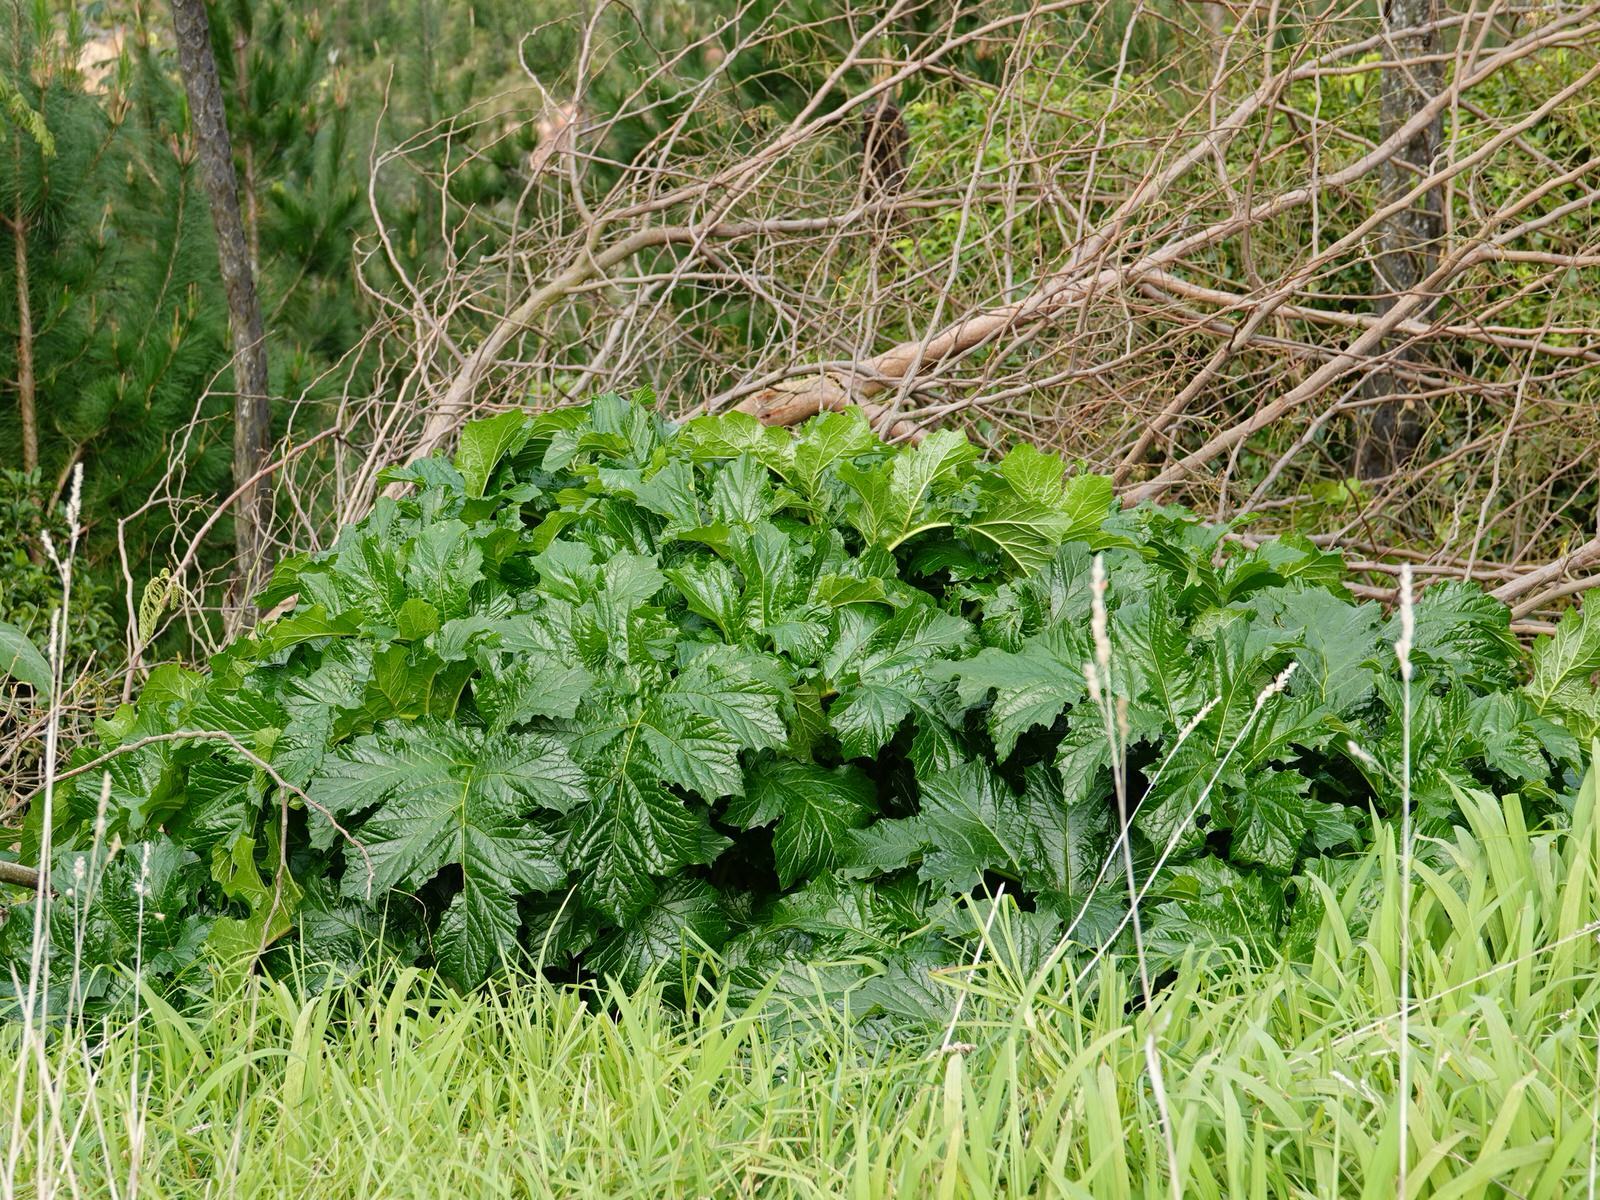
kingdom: Plantae
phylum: Tracheophyta
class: Magnoliopsida
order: Lamiales
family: Acanthaceae
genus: Acanthus
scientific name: Acanthus mollis
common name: Bear's-breech
